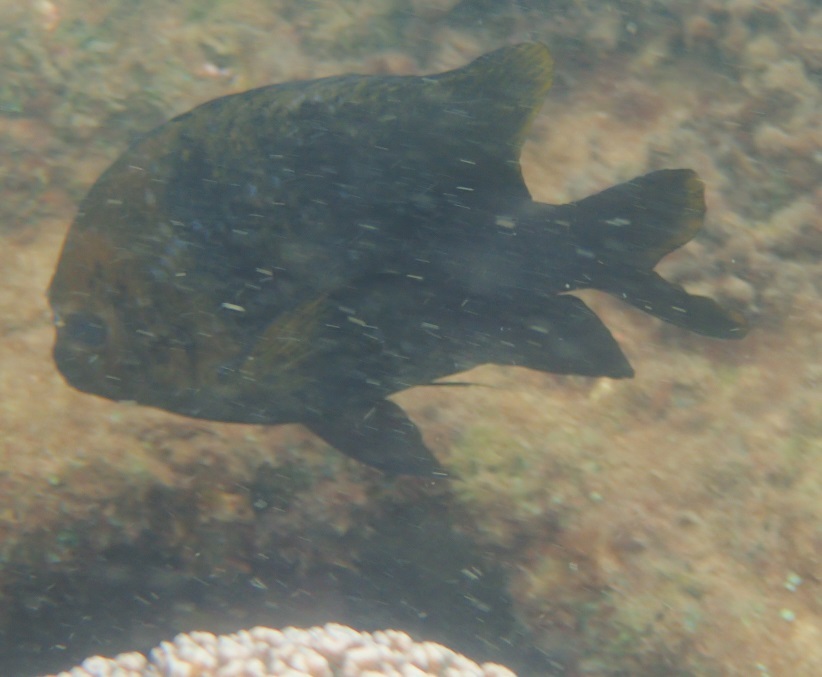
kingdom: Animalia
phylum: Chordata
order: Perciformes
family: Pomacentridae
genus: Parma
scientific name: Parma polylepis
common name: Banded parma
